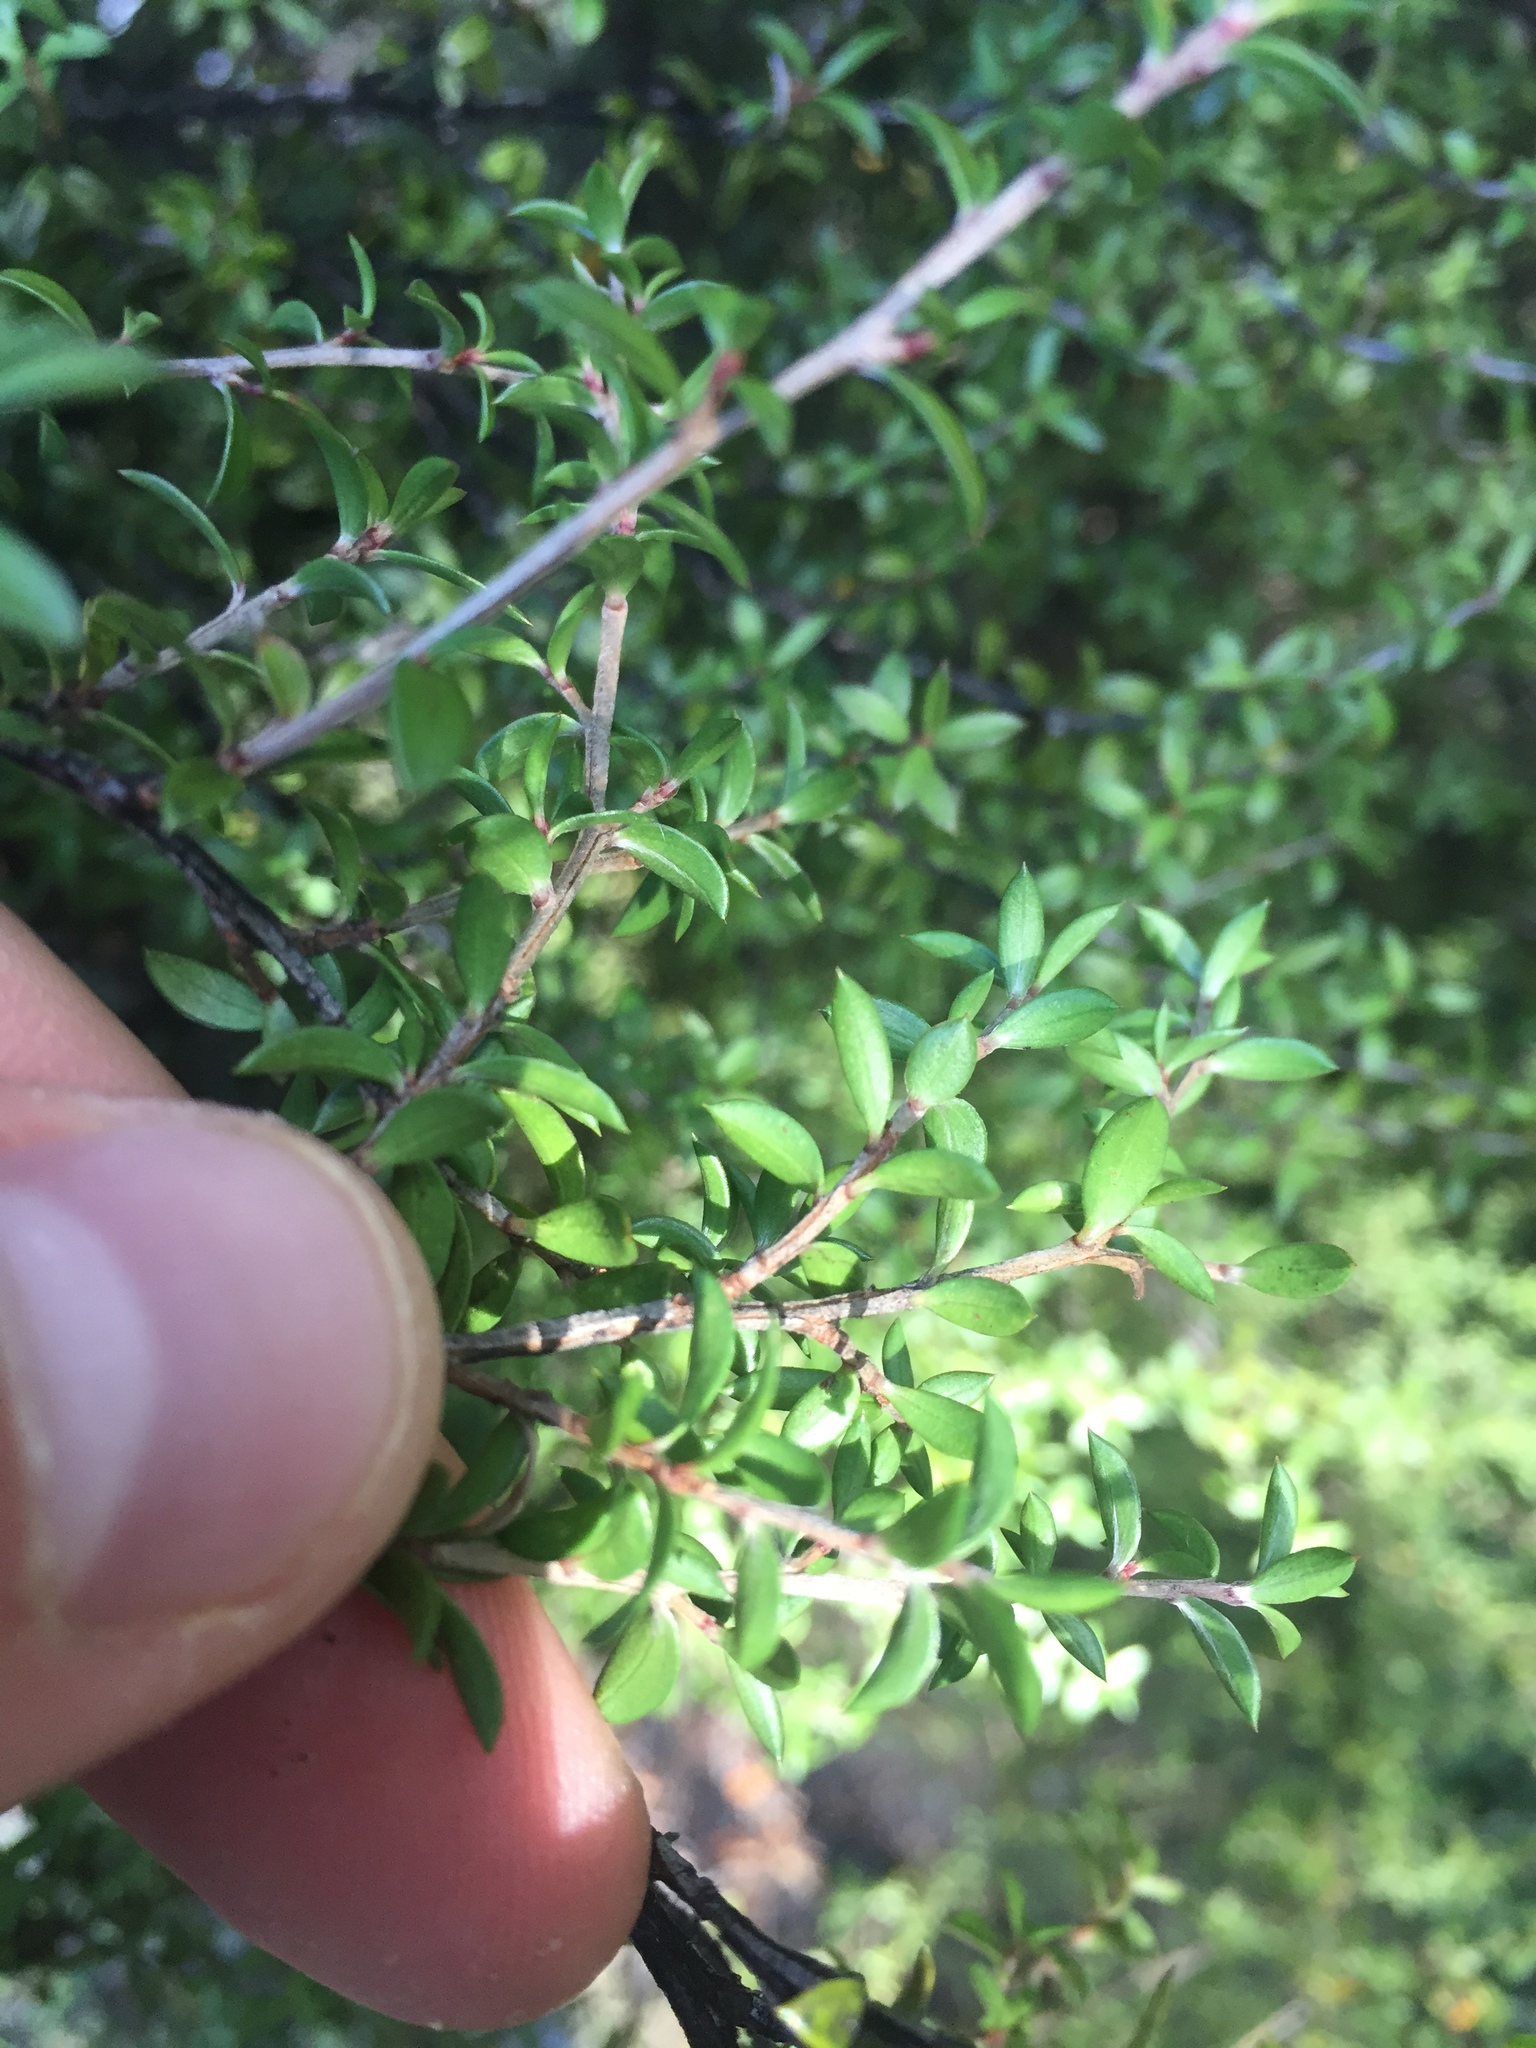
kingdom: Plantae
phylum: Tracheophyta
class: Magnoliopsida
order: Myrtales
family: Myrtaceae
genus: Leptospermum
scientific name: Leptospermum scoparium
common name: Broom tea-tree
